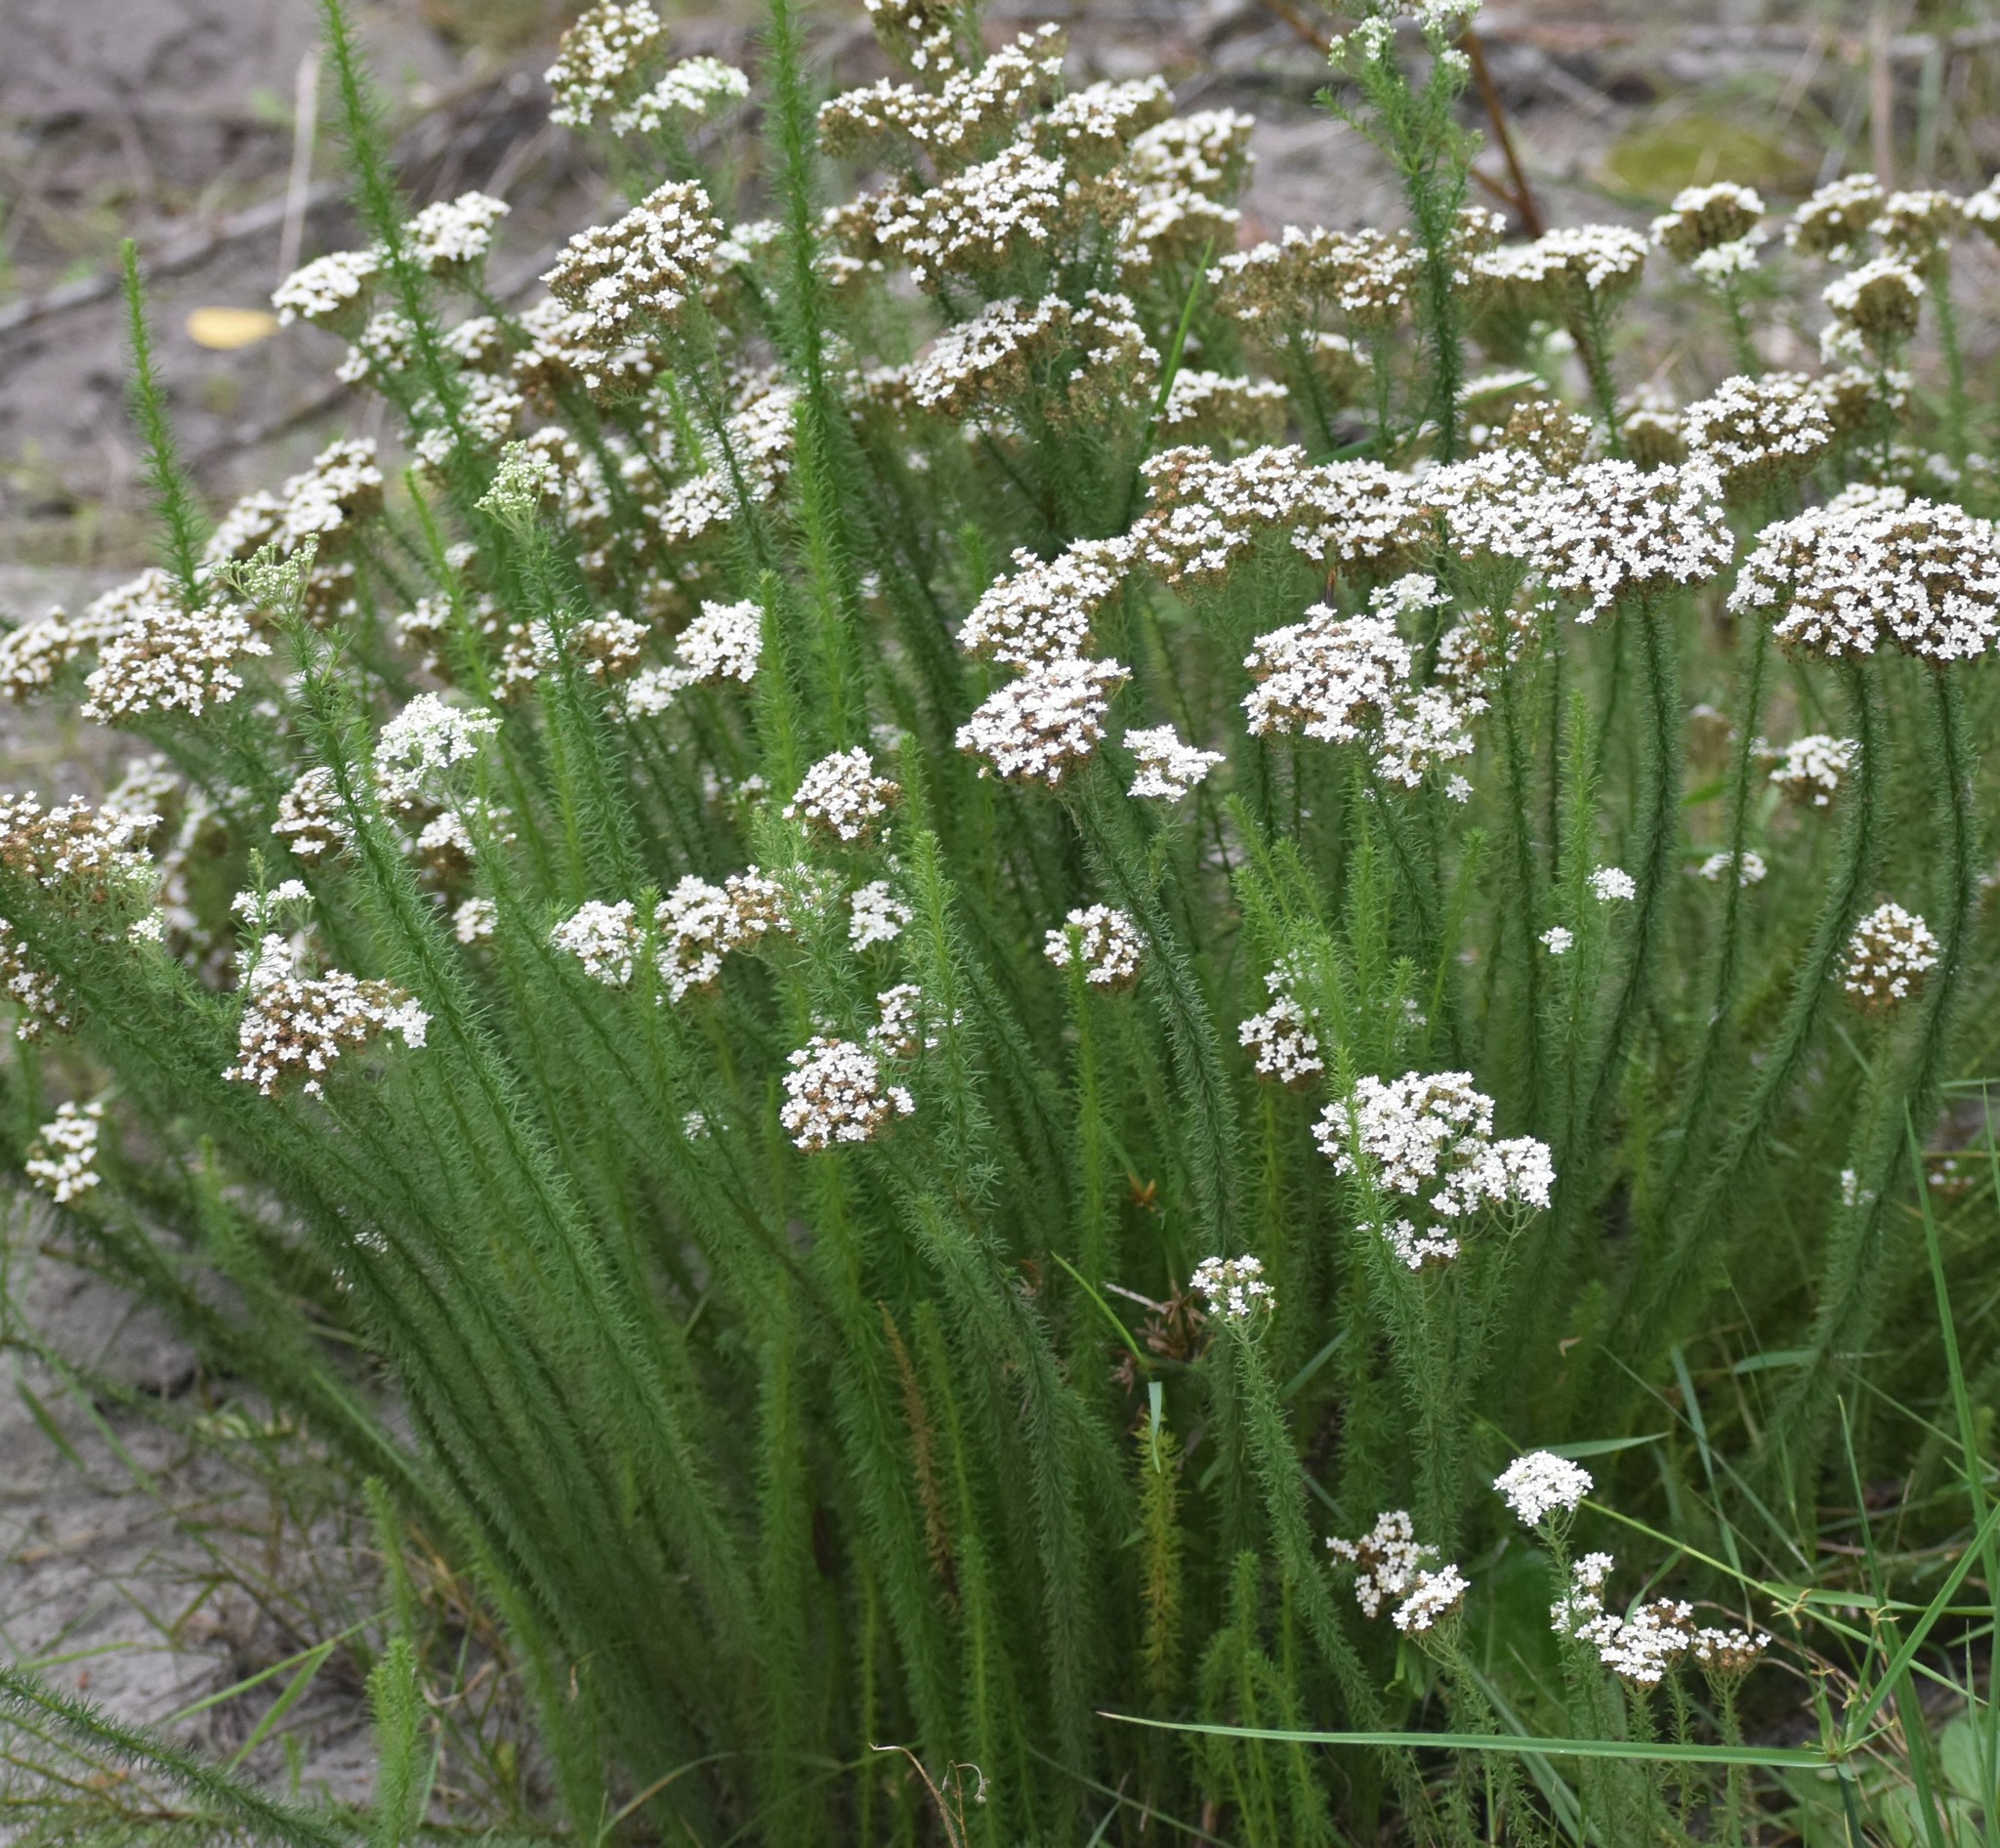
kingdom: Plantae
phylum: Tracheophyta
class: Magnoliopsida
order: Lamiales
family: Scrophulariaceae
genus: Selago
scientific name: Selago corymbosa
